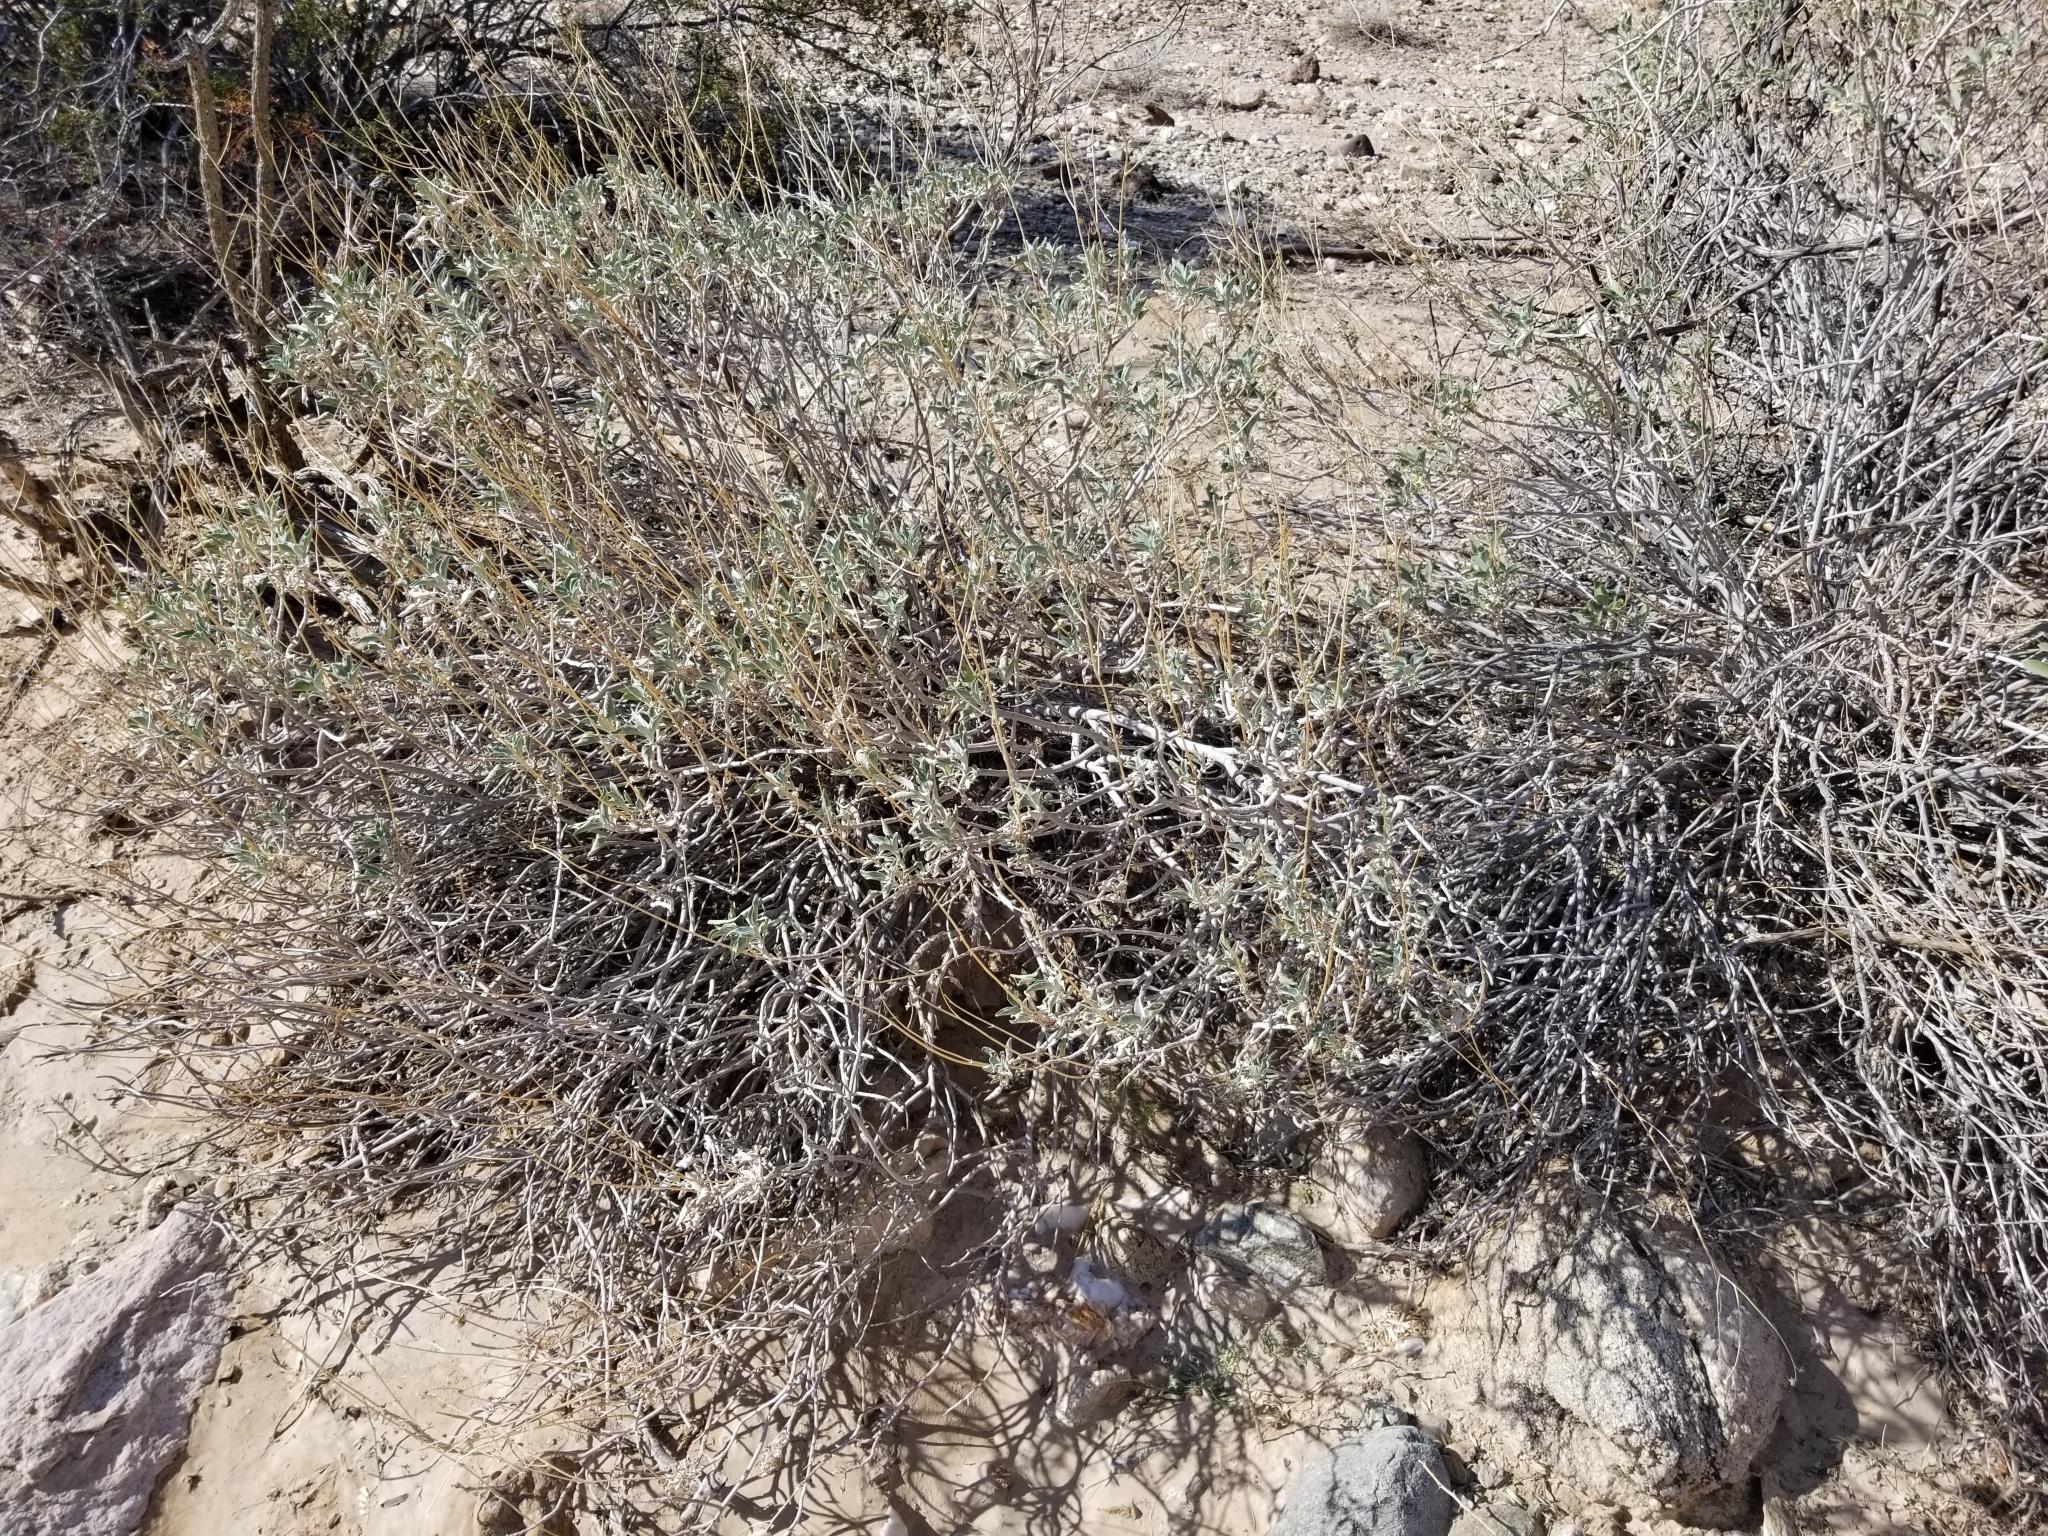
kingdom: Plantae
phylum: Tracheophyta
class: Magnoliopsida
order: Asterales
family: Asteraceae
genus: Encelia
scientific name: Encelia farinosa
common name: Brittlebush
